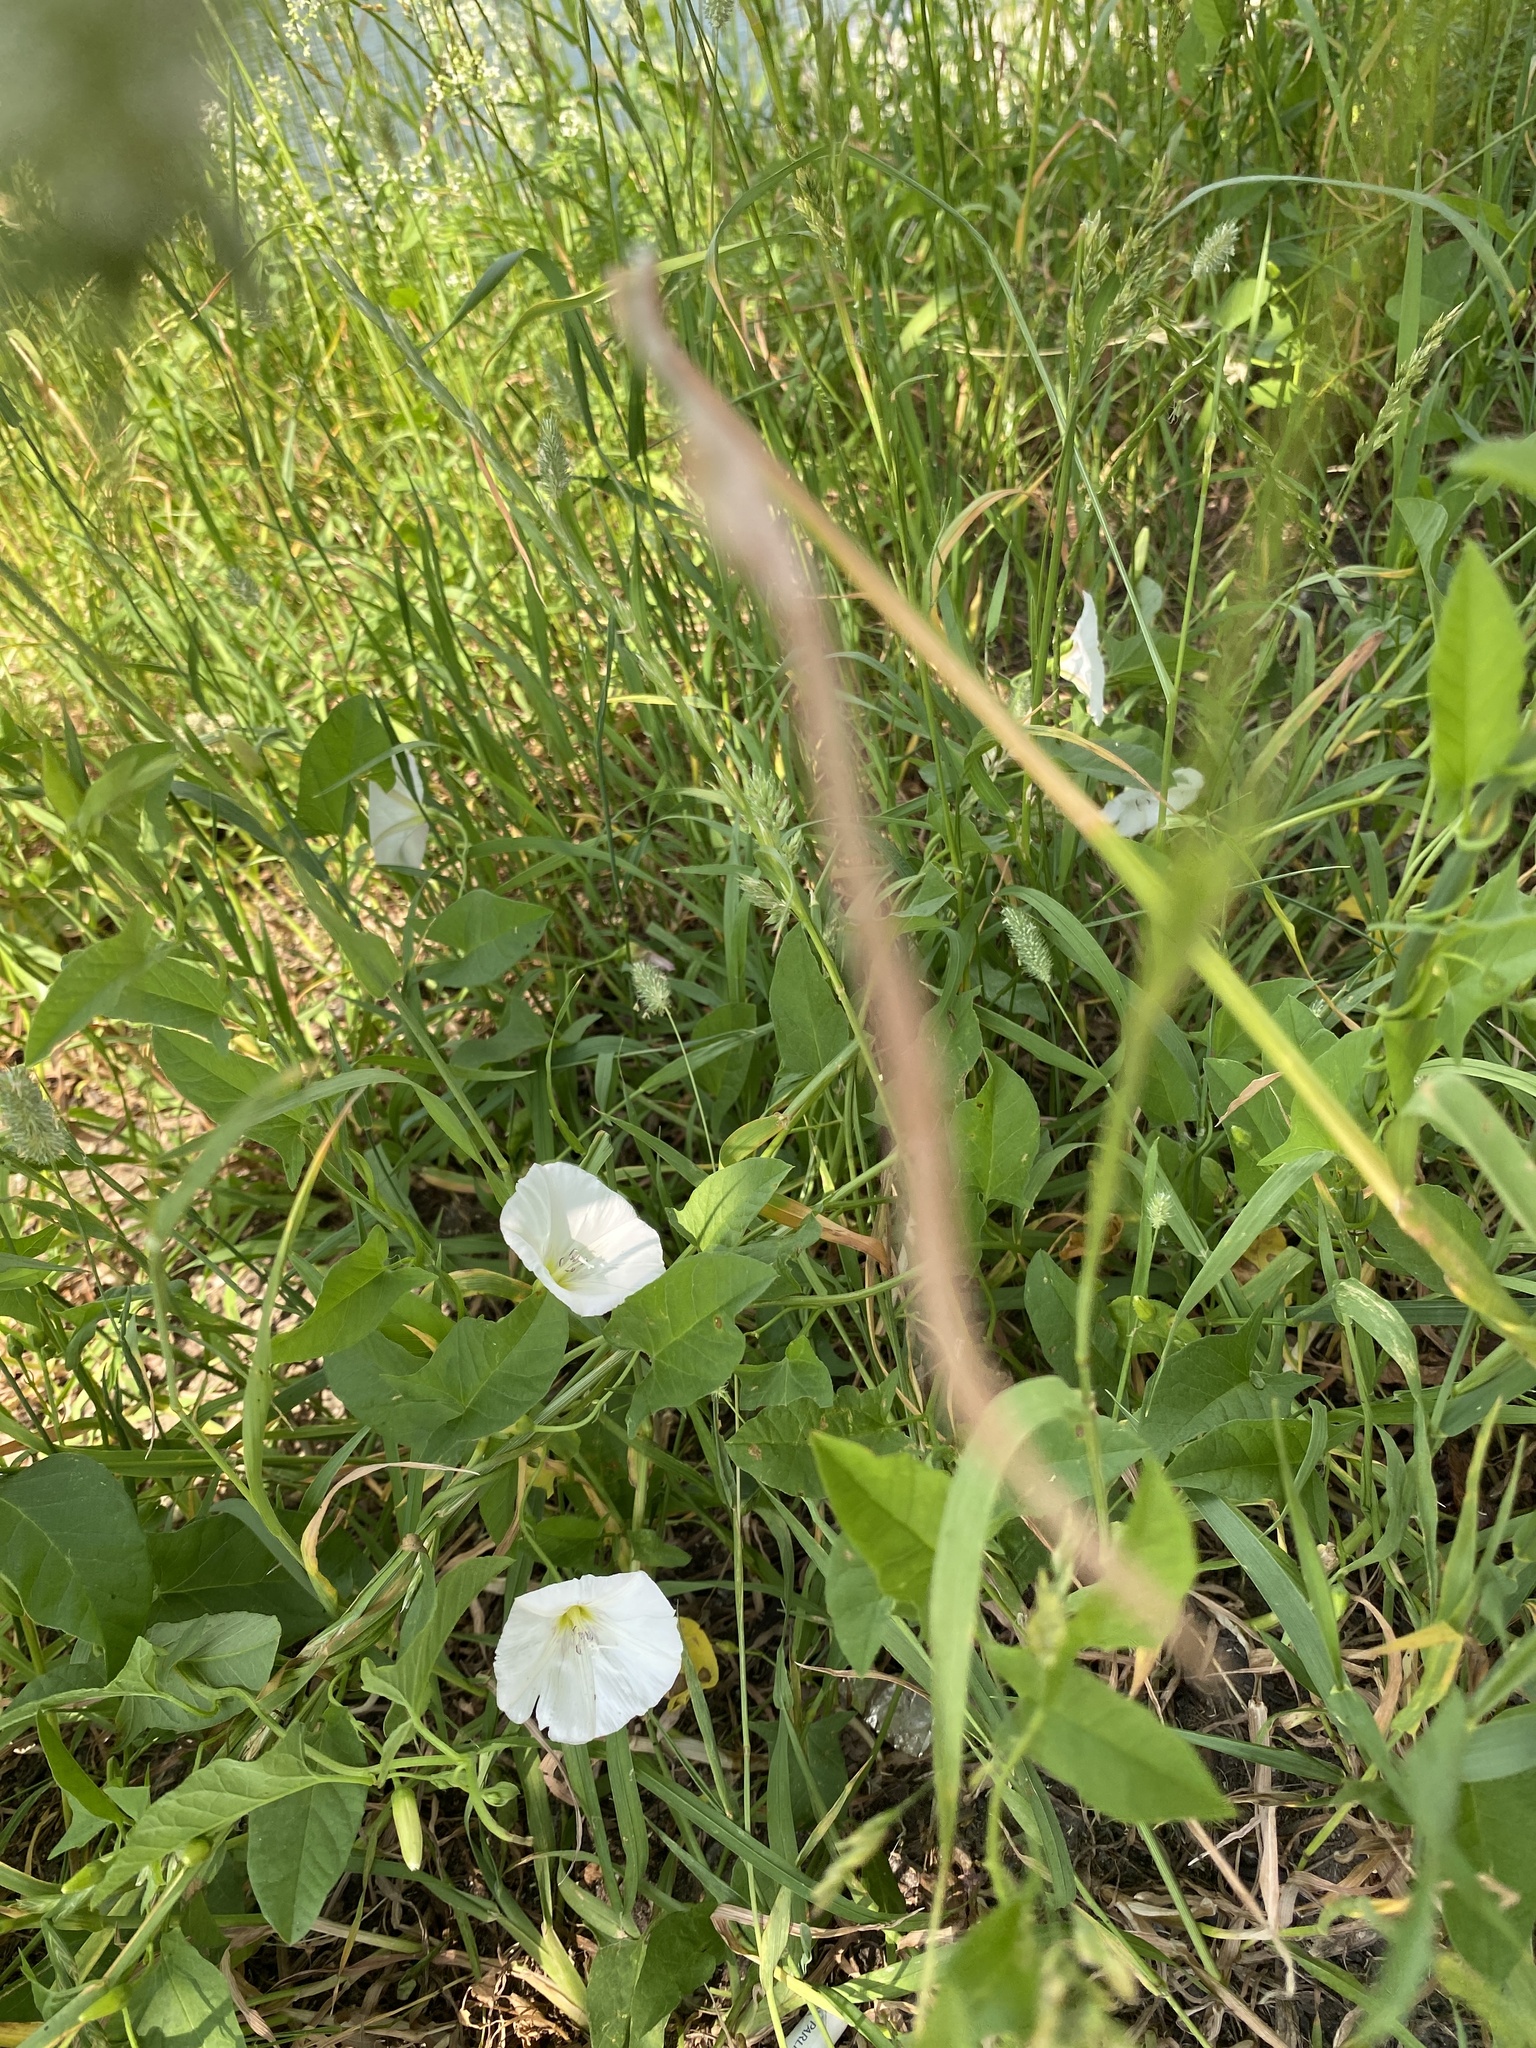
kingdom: Plantae
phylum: Tracheophyta
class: Magnoliopsida
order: Solanales
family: Convolvulaceae
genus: Convolvulus
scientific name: Convolvulus arvensis
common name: Field bindweed
